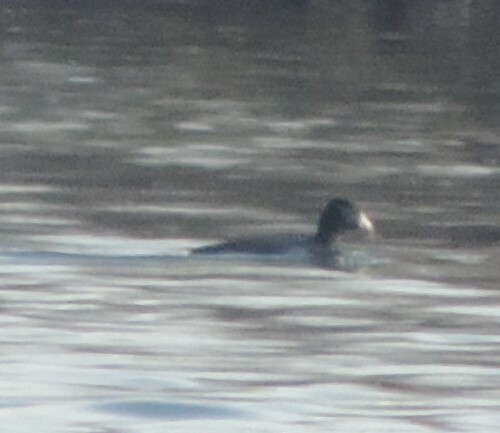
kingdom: Animalia
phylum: Chordata
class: Aves
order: Gruiformes
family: Rallidae
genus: Fulica
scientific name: Fulica americana
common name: American coot
